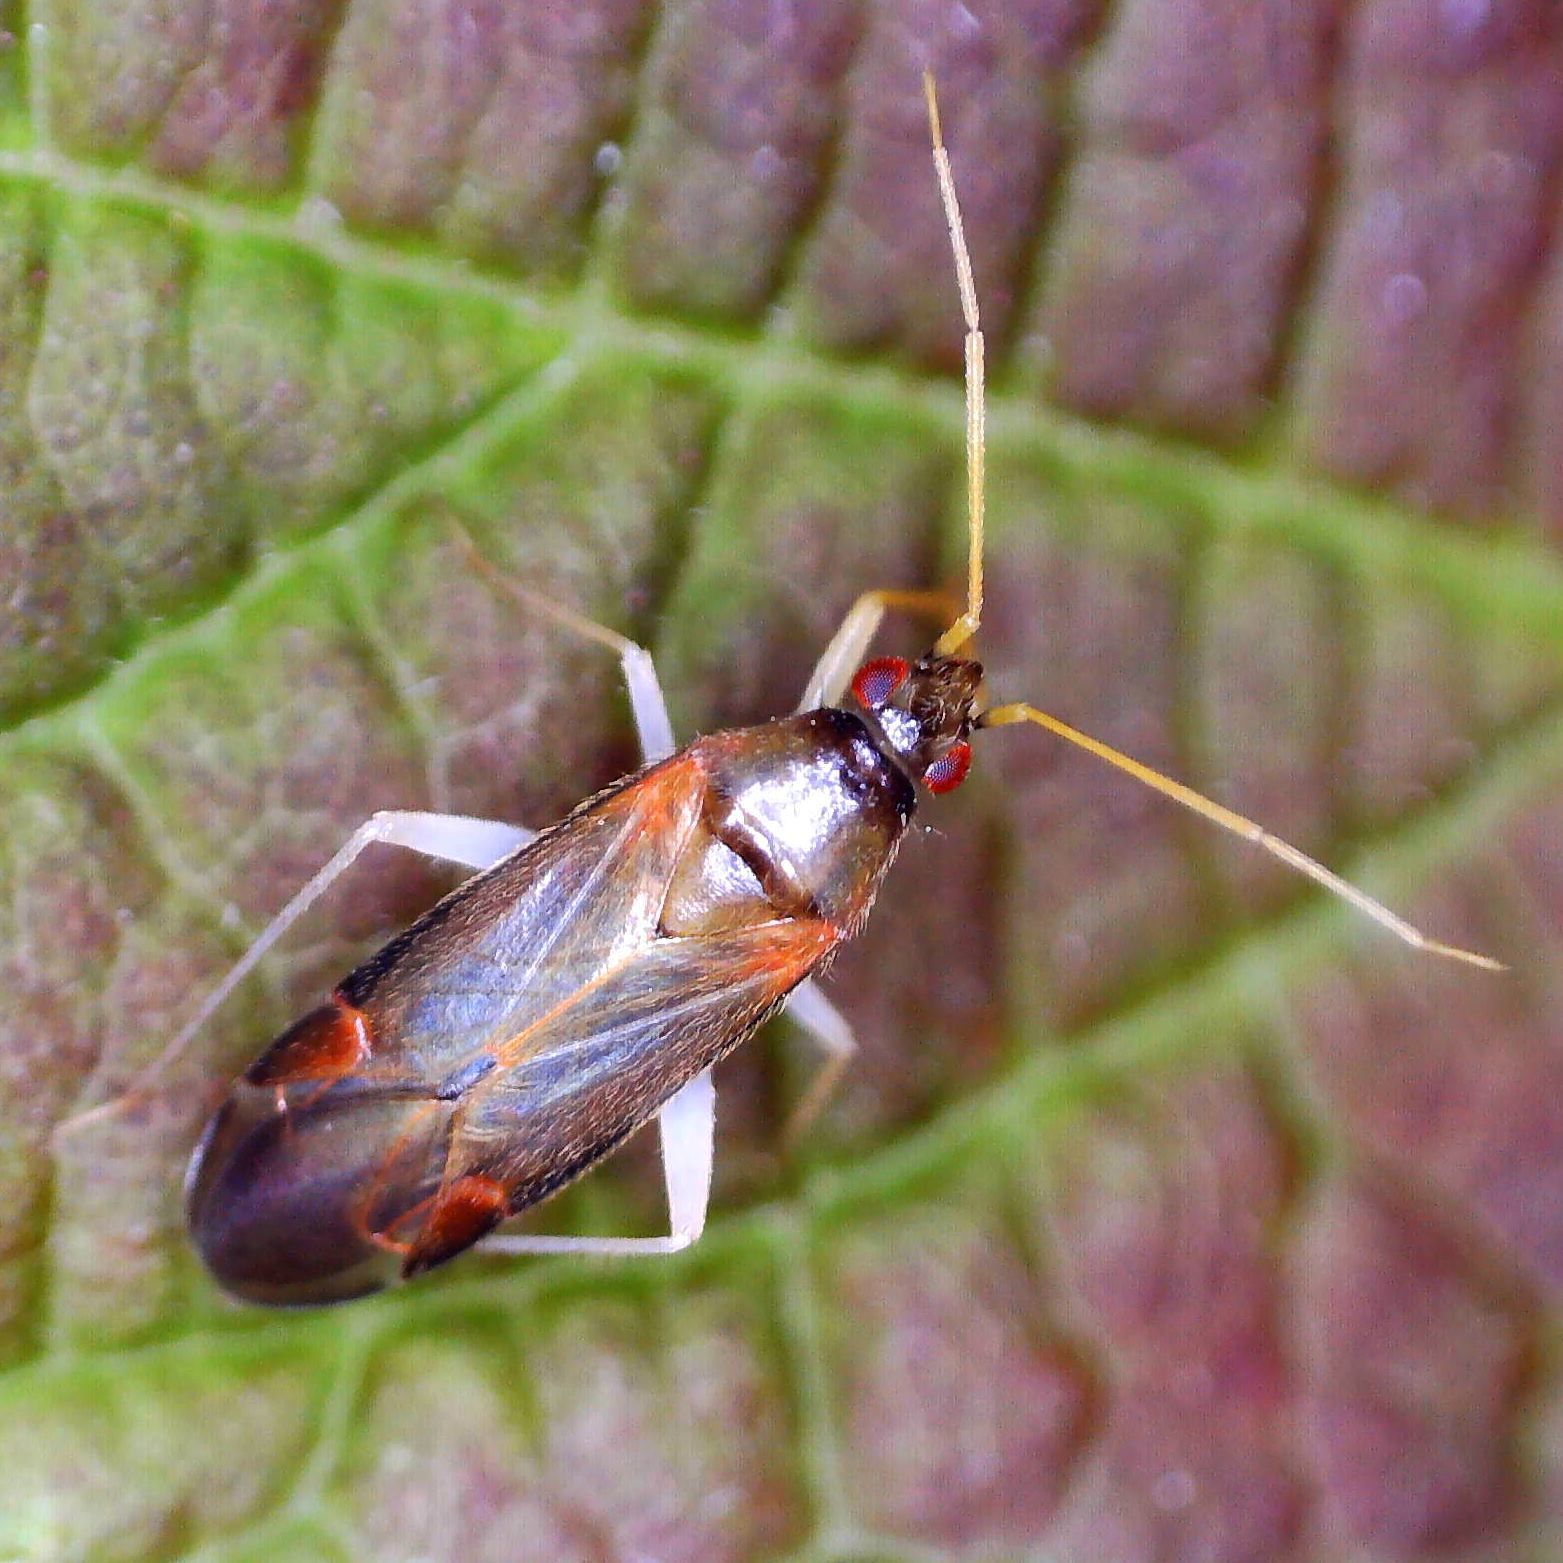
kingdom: Animalia
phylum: Arthropoda
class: Insecta
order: Hemiptera
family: Miridae
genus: Phylus
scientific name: Phylus coryli
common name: Plant bug
